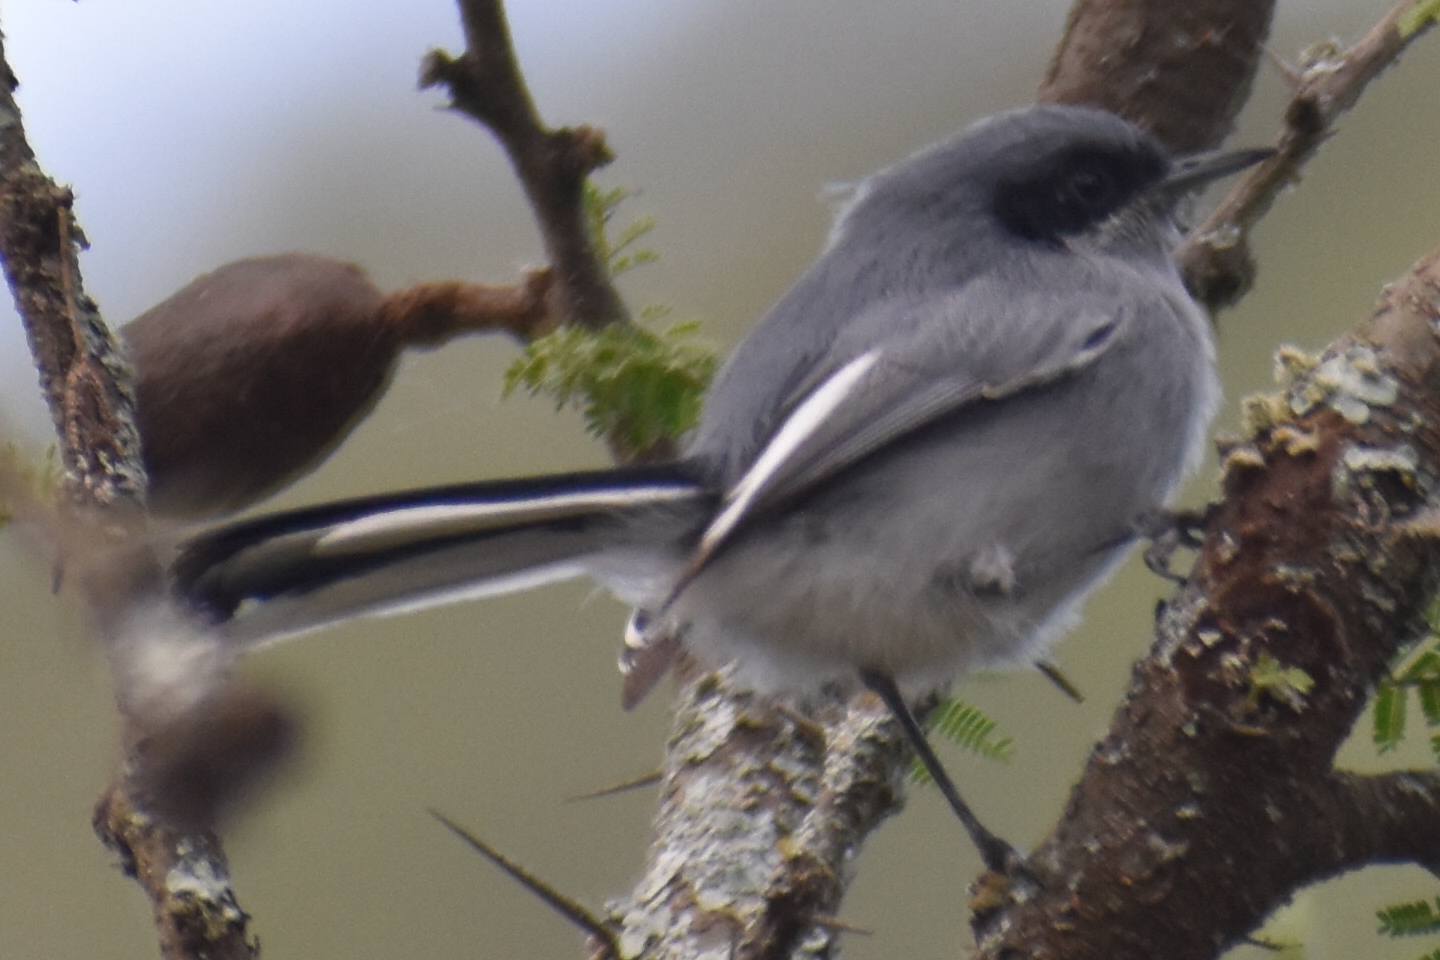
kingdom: Animalia
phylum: Chordata
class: Aves
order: Passeriformes
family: Polioptilidae
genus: Polioptila
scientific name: Polioptila dumicola
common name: Masked gnatcatcher
